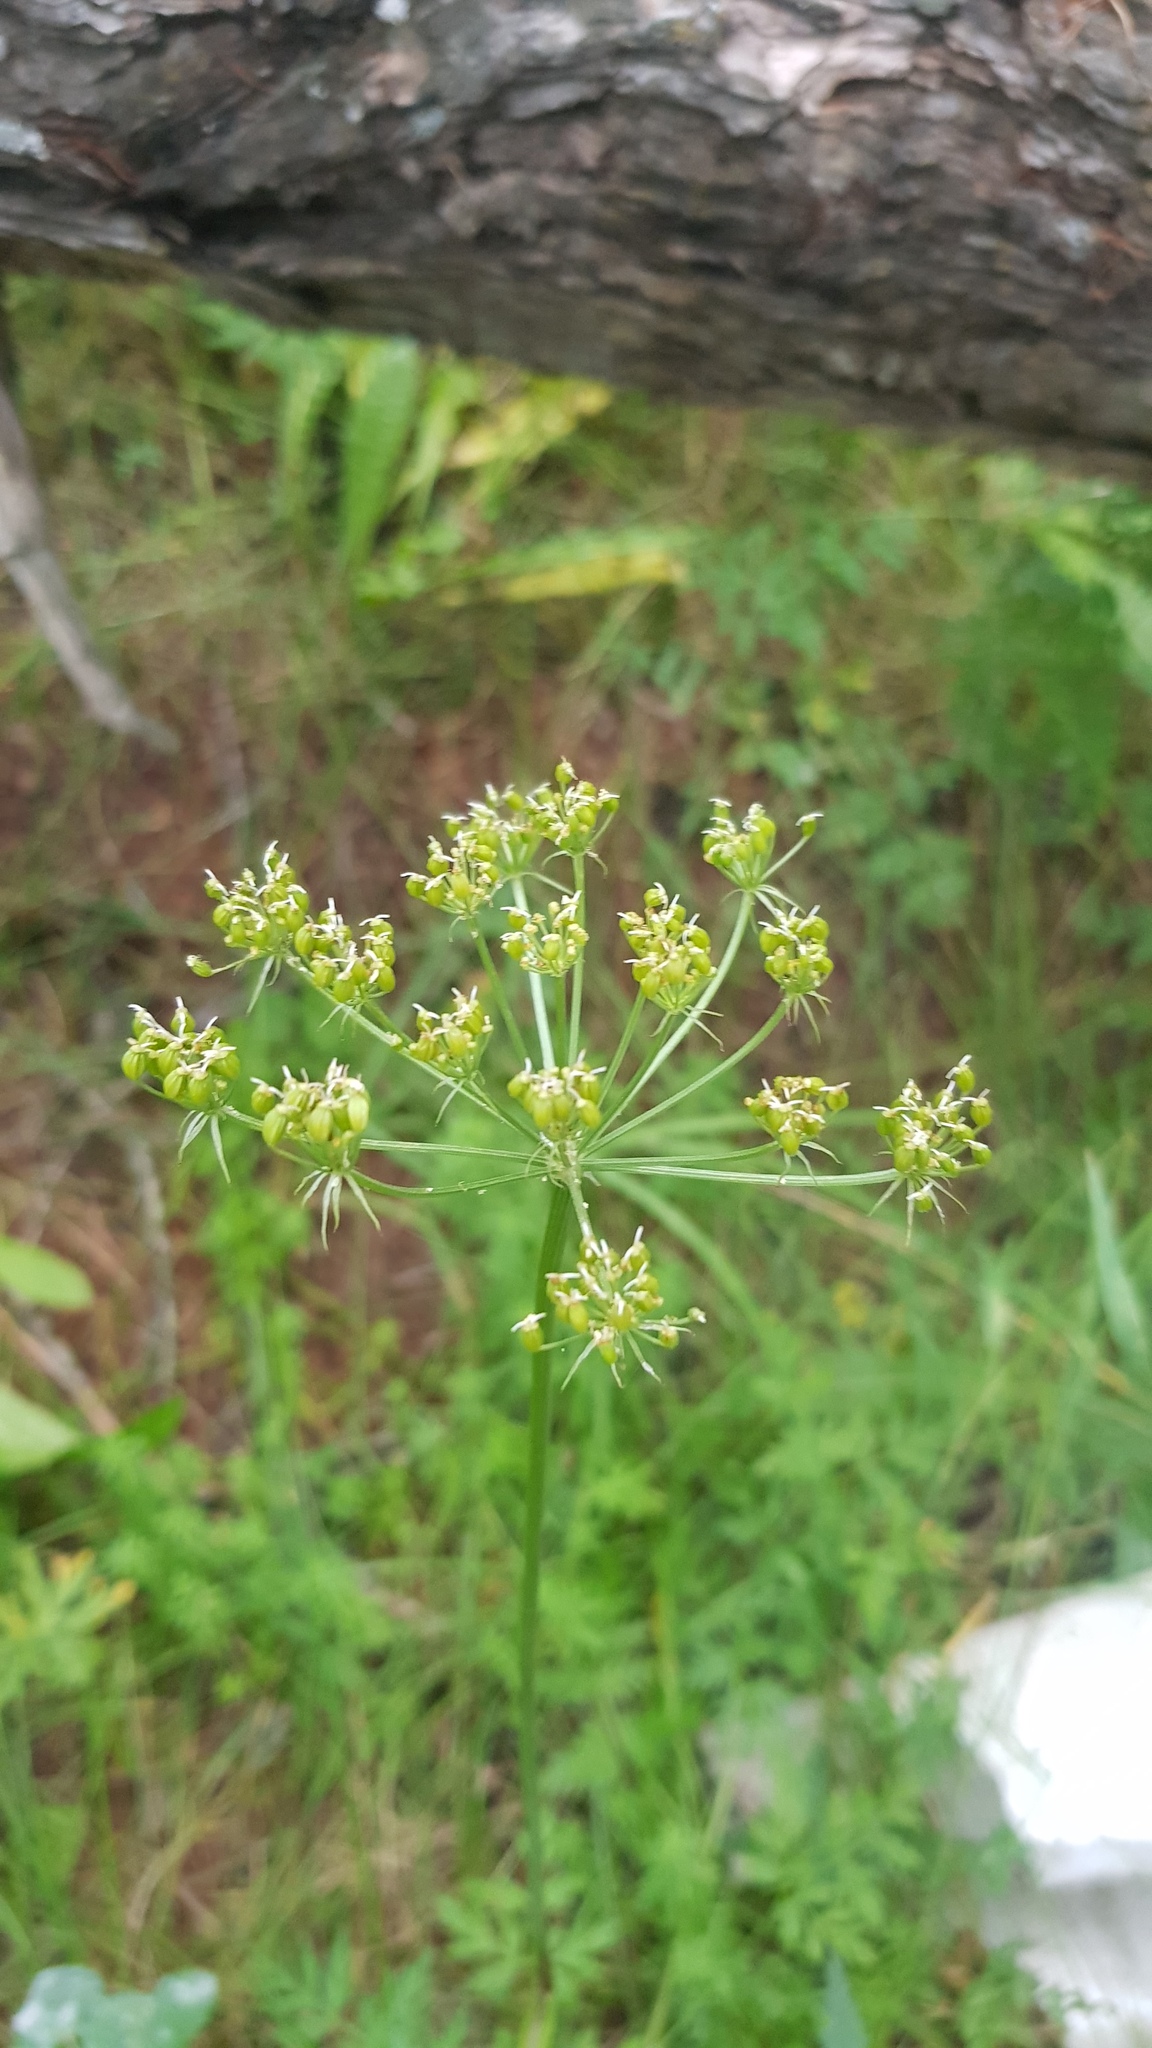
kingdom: Plantae
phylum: Tracheophyta
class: Magnoliopsida
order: Apiales
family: Apiaceae
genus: Conioselinum
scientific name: Conioselinum tataricum
